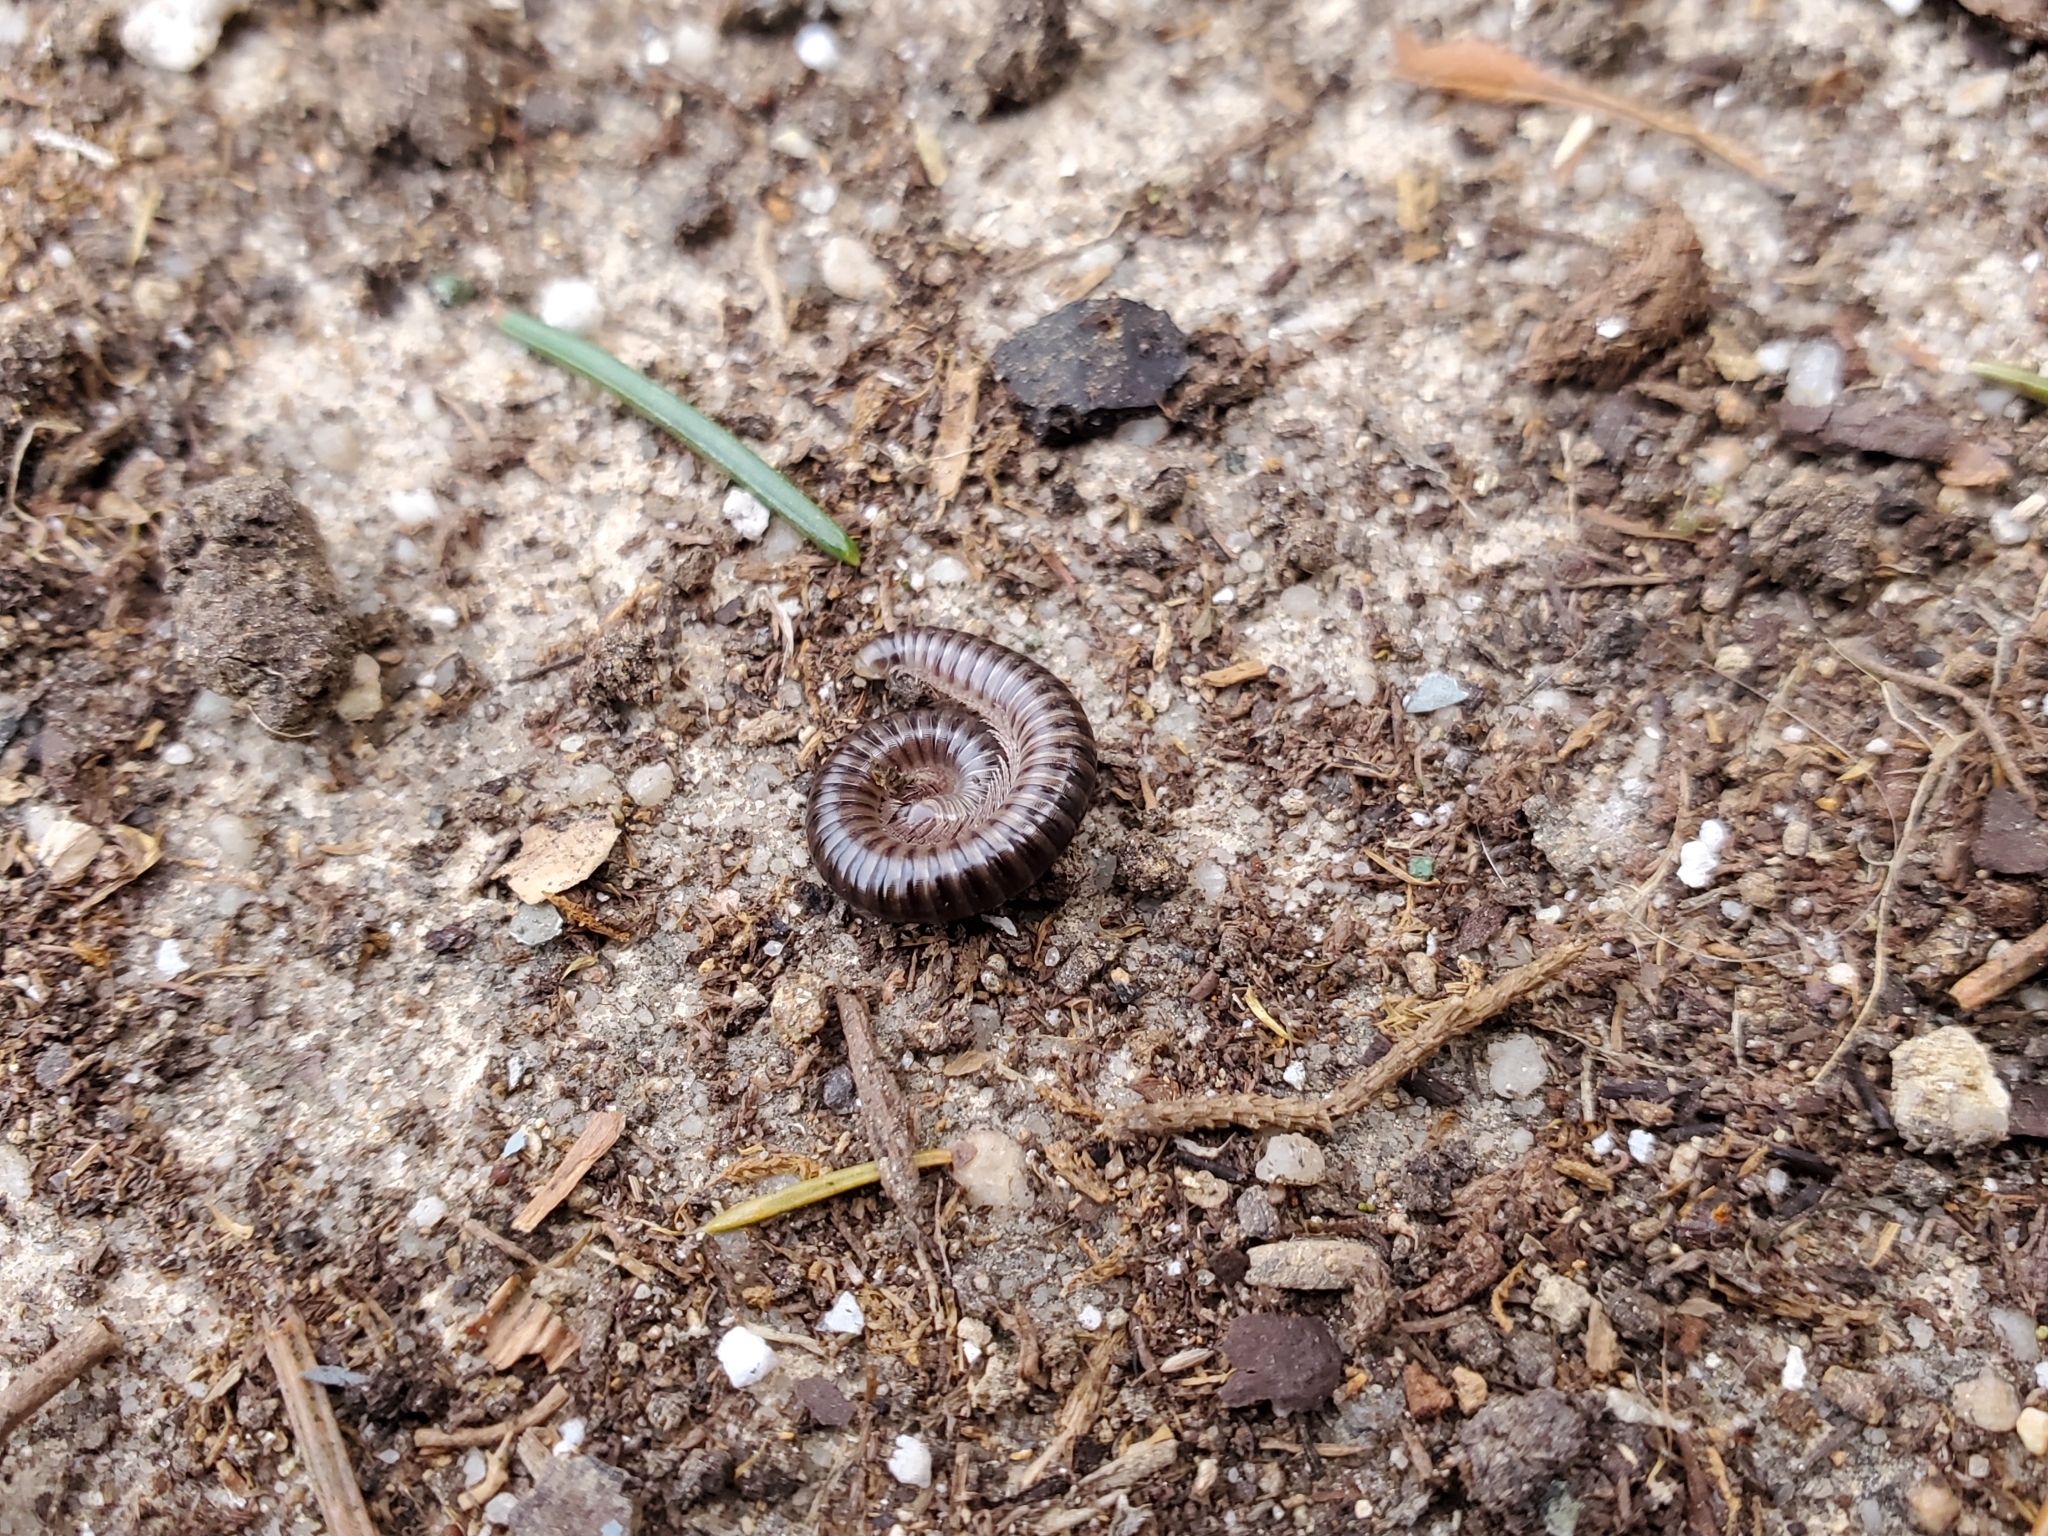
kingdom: Animalia
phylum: Arthropoda
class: Diplopoda
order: Julida
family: Julidae
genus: Cylindroiulus
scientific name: Cylindroiulus caeruleocinctus
